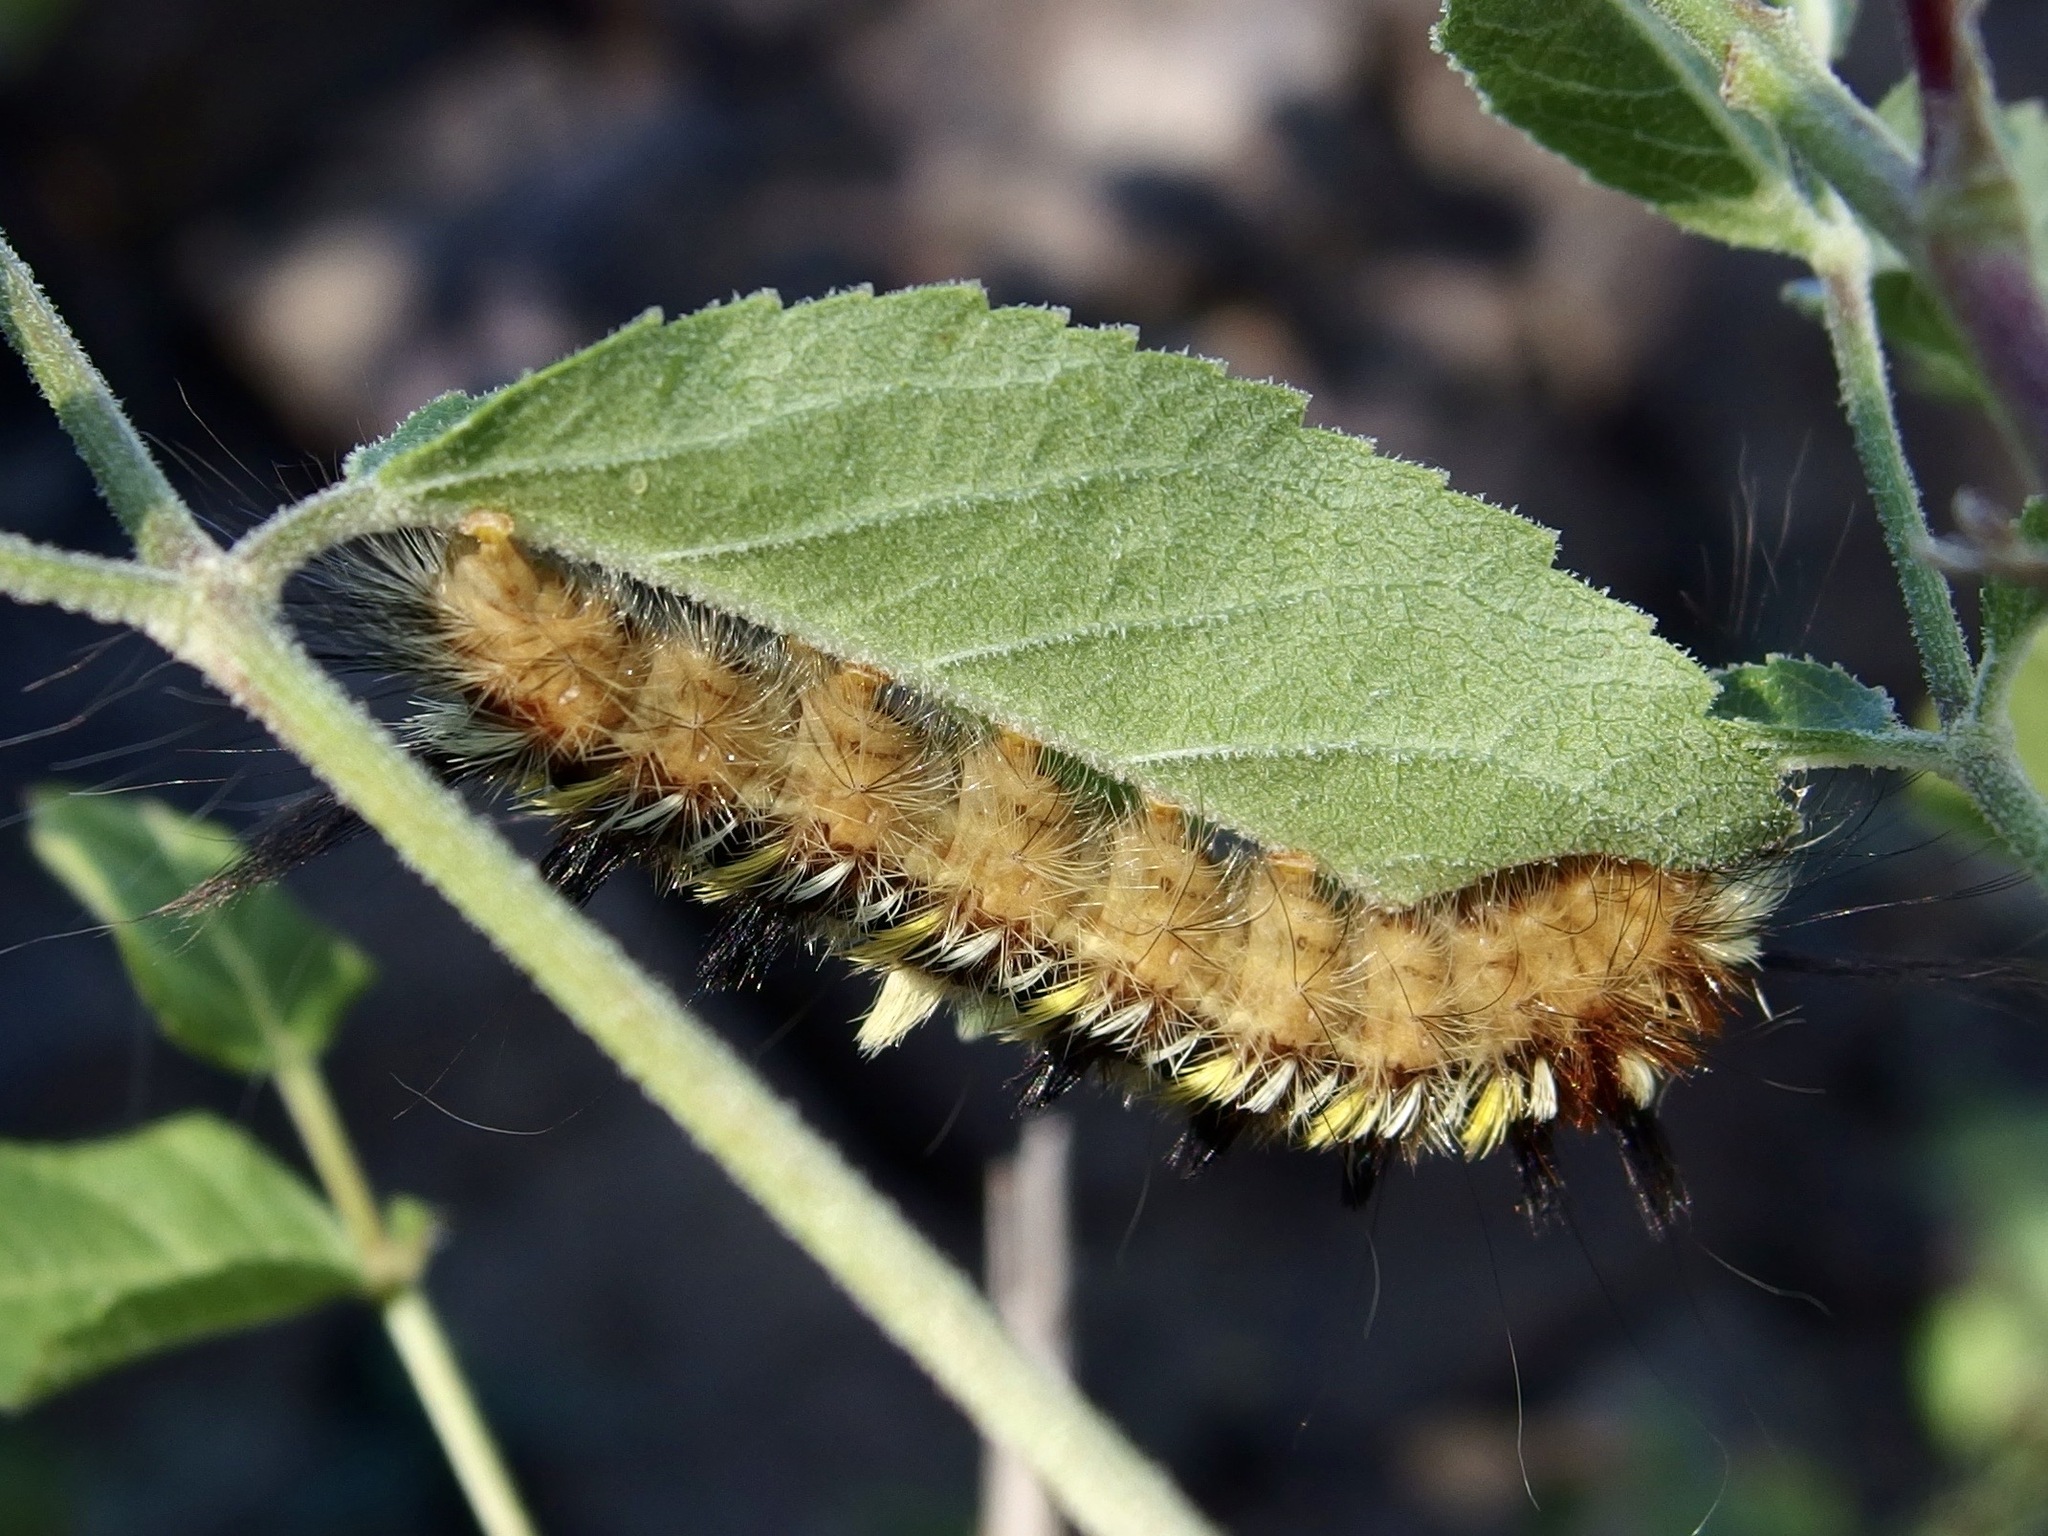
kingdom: Animalia
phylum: Arthropoda
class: Insecta
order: Lepidoptera
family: Apatelodidae
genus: Hygrochroa
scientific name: Hygrochroa Apatelodes pudefacta
